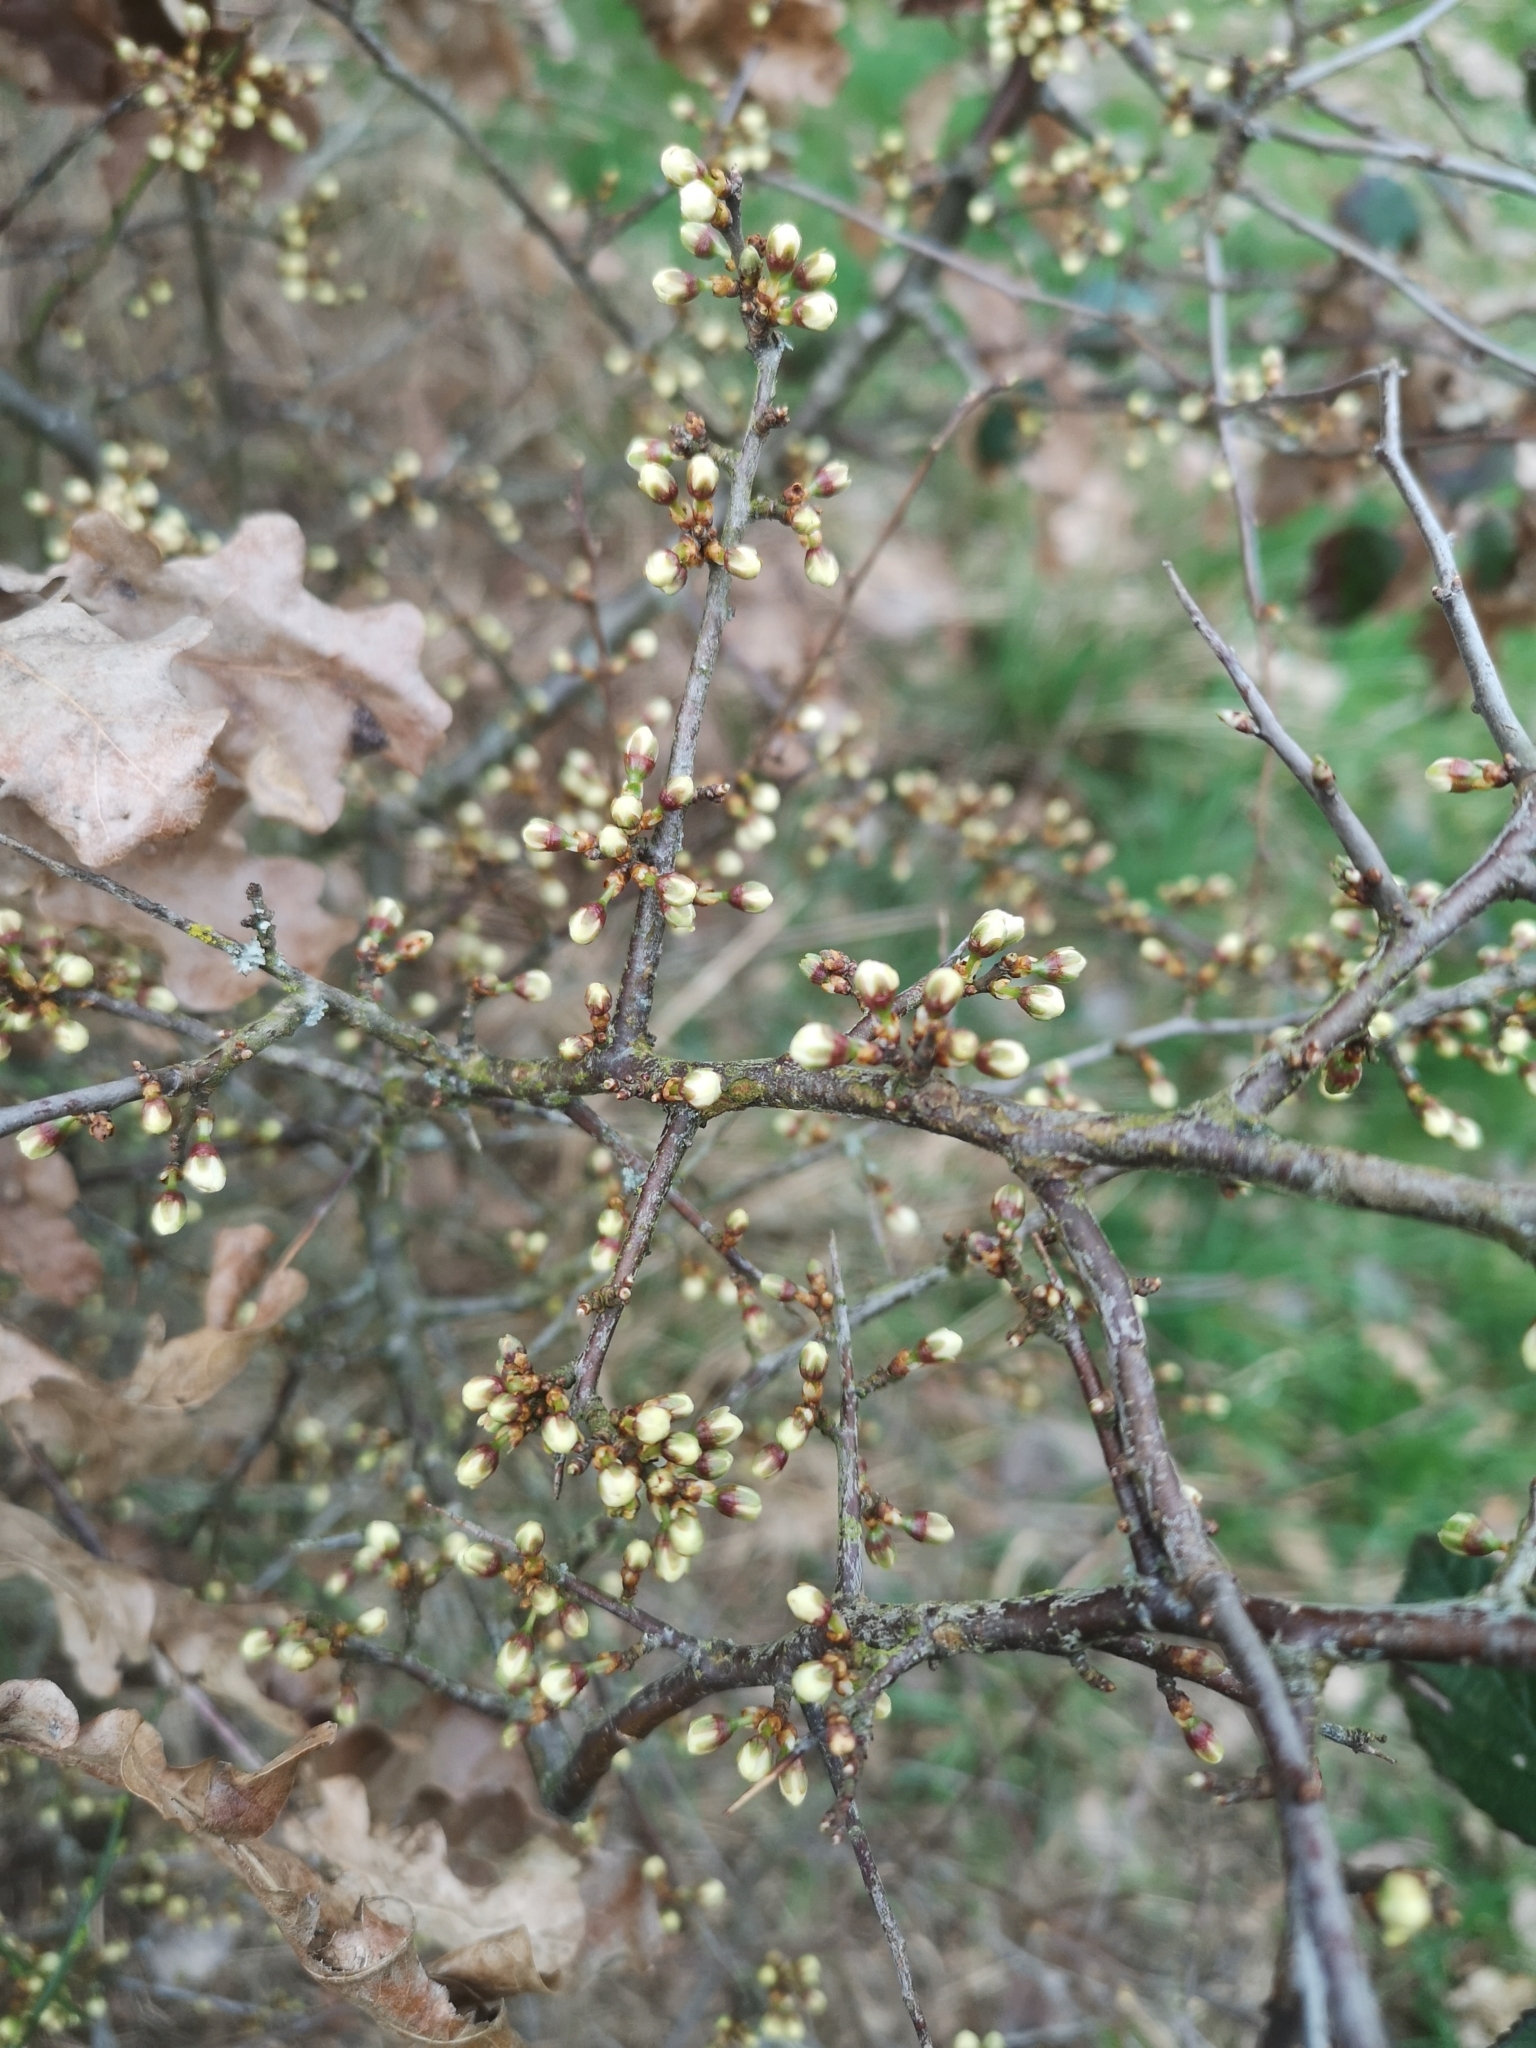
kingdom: Plantae
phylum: Tracheophyta
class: Magnoliopsida
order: Rosales
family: Rosaceae
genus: Prunus
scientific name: Prunus spinosa
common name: Blackthorn
